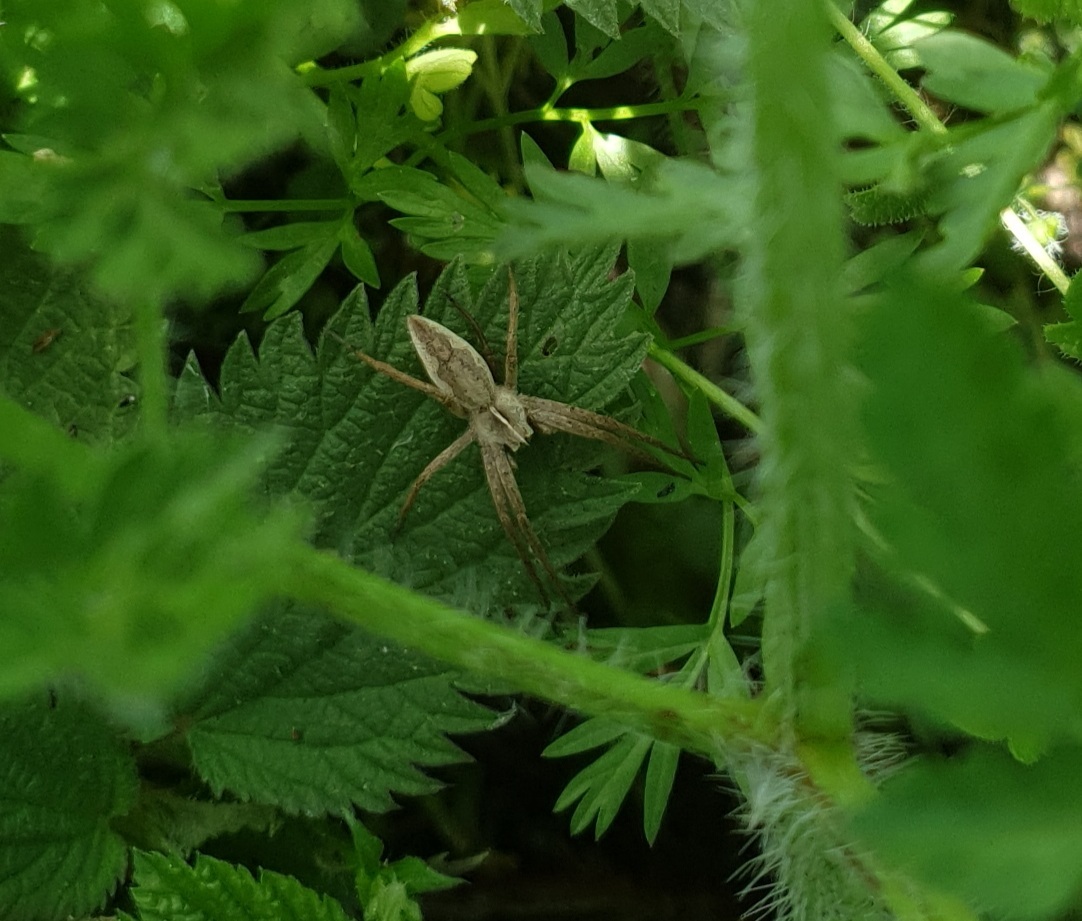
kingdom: Animalia
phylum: Arthropoda
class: Arachnida
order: Araneae
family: Pisauridae
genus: Pisaura
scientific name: Pisaura mirabilis
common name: Tent spider
